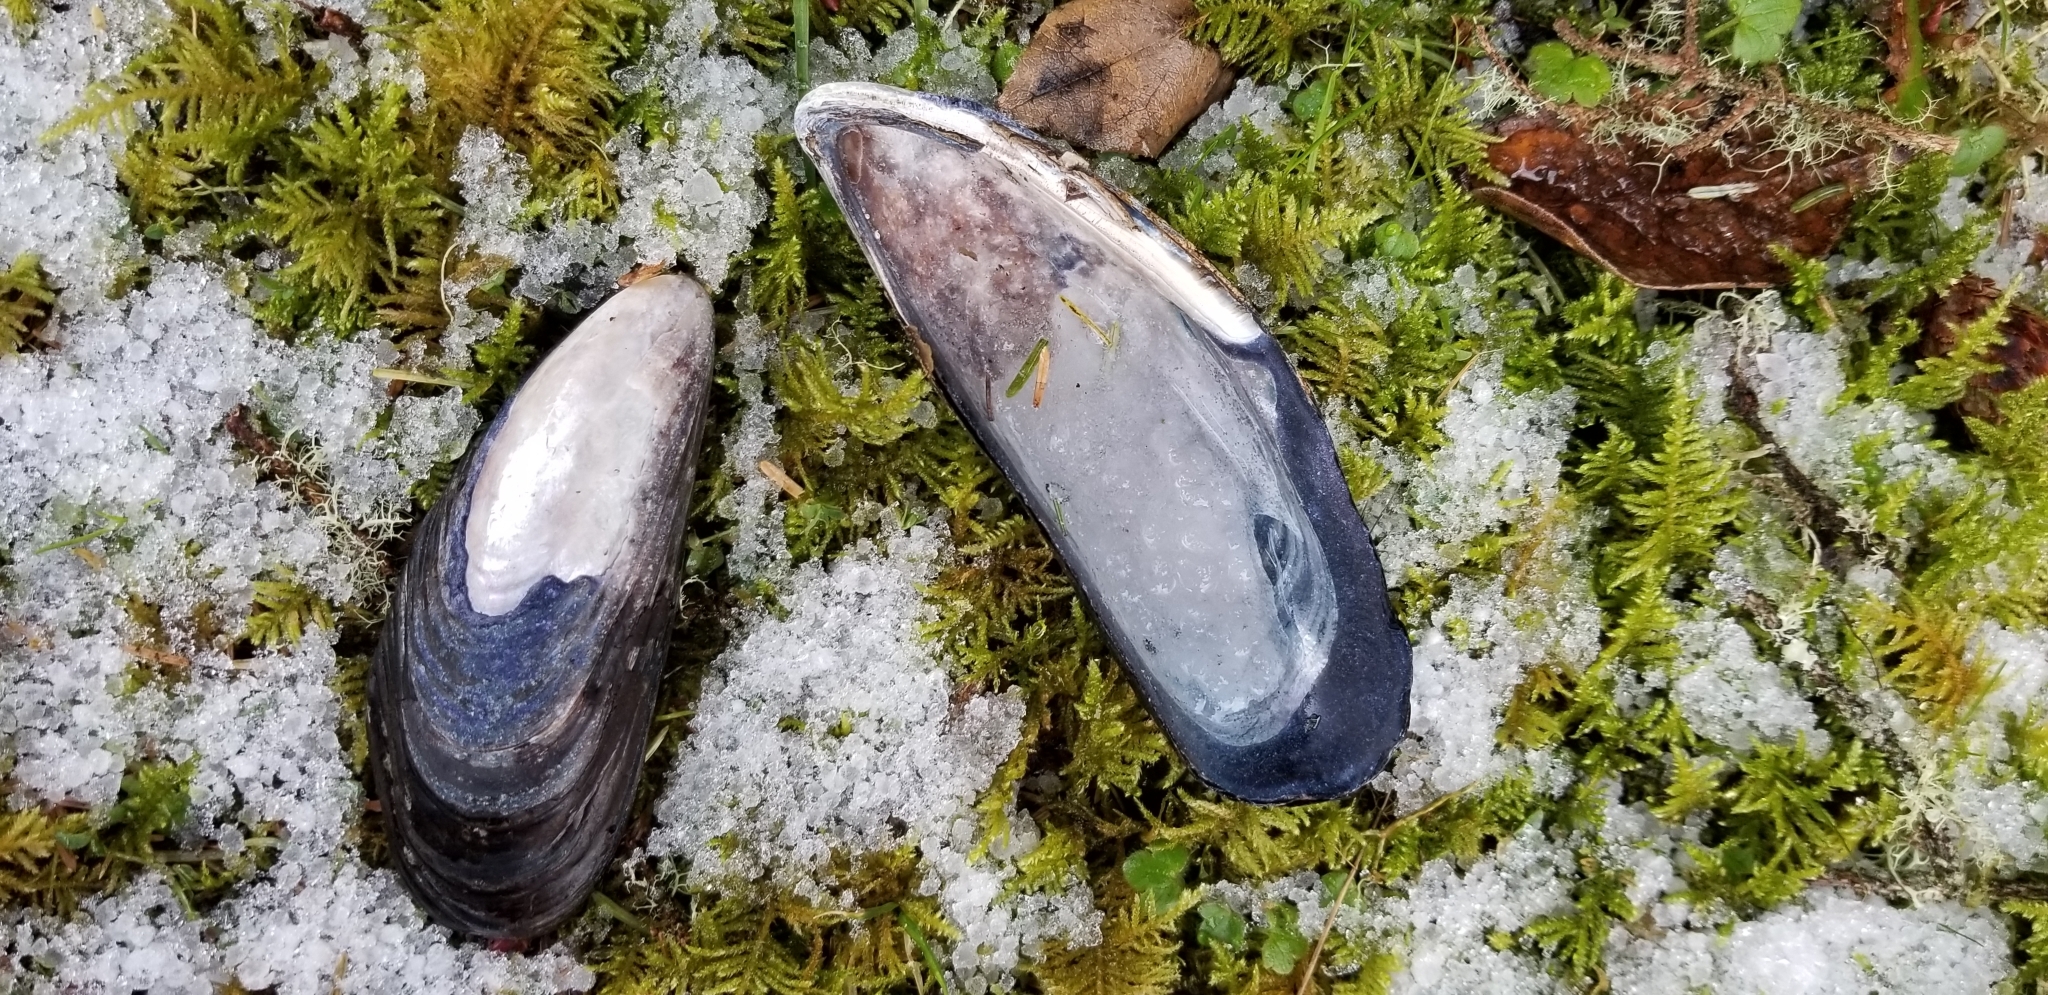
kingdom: Animalia
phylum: Mollusca
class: Bivalvia
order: Mytilida
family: Mytilidae
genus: Mytilus
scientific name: Mytilus californianus
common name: California mussel
